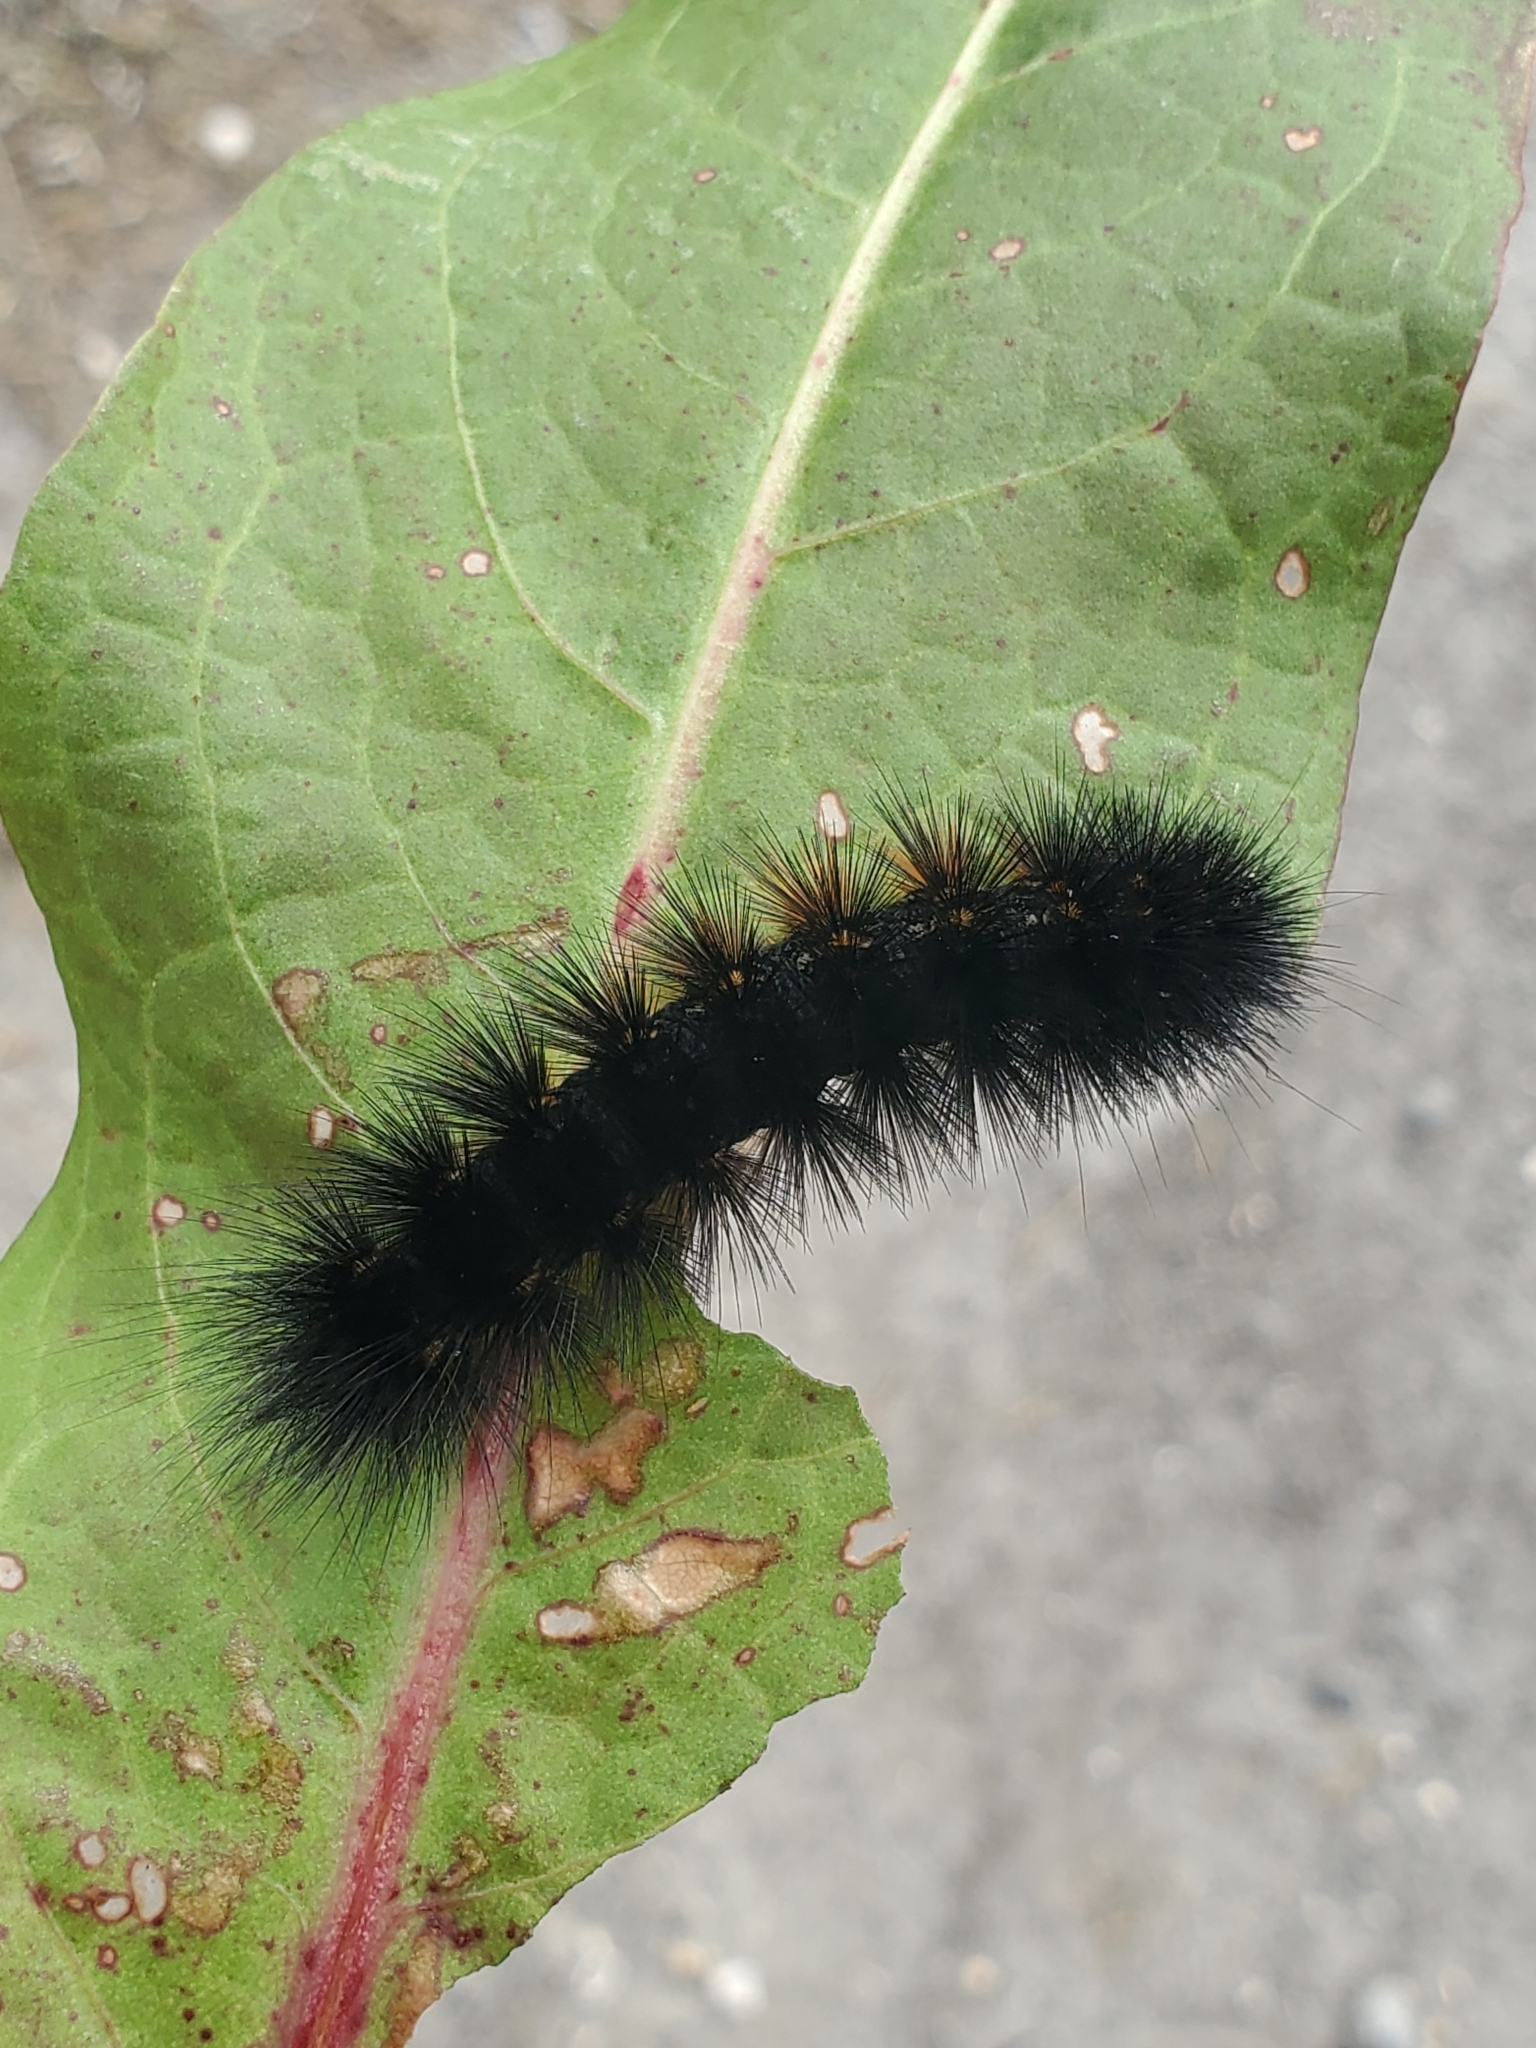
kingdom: Animalia
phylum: Arthropoda
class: Insecta
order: Lepidoptera
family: Erebidae
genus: Estigmene
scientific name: Estigmene acrea
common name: Salt marsh moth
